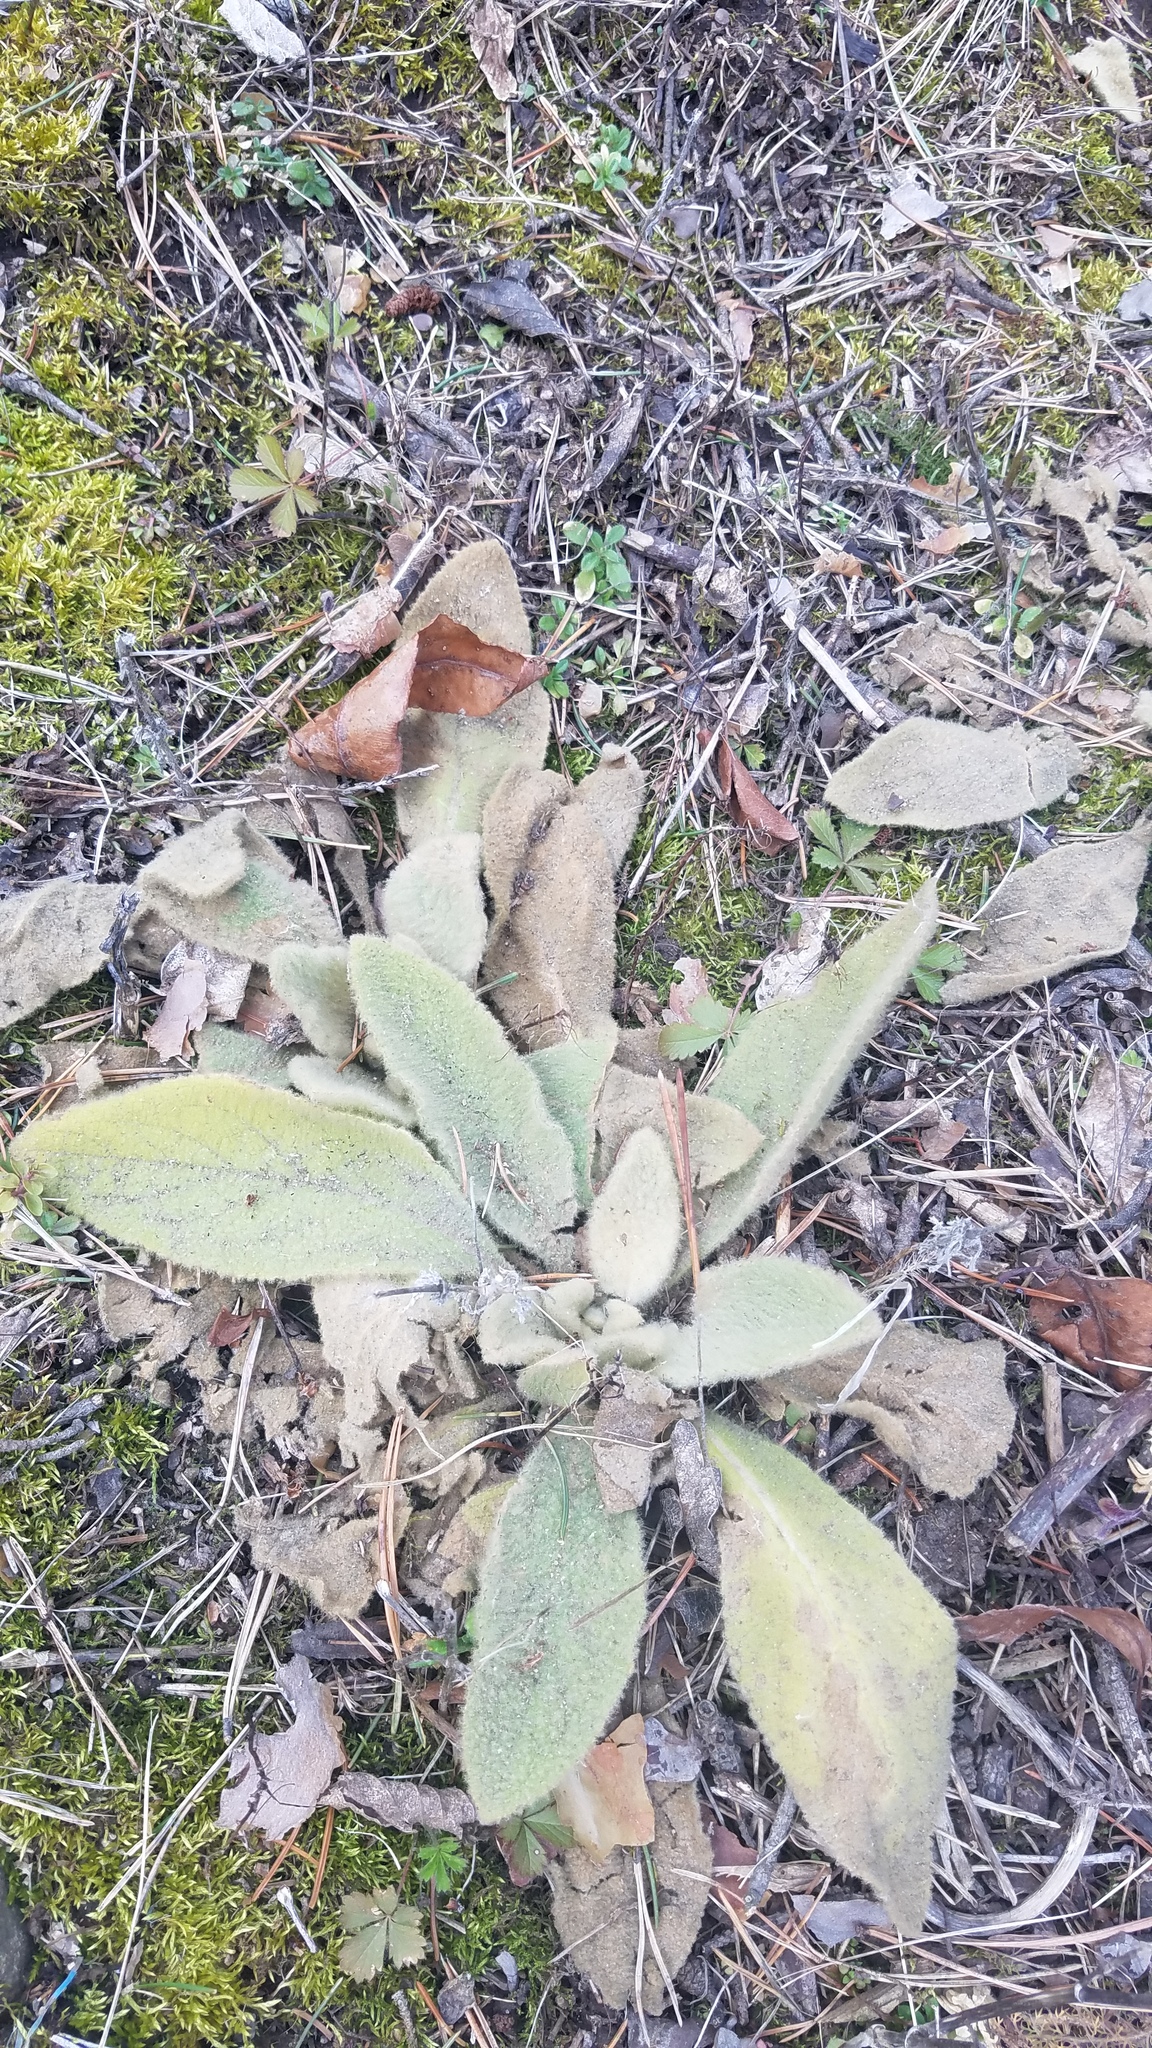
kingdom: Plantae
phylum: Tracheophyta
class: Magnoliopsida
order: Lamiales
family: Scrophulariaceae
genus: Verbascum
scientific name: Verbascum thapsus
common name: Common mullein
